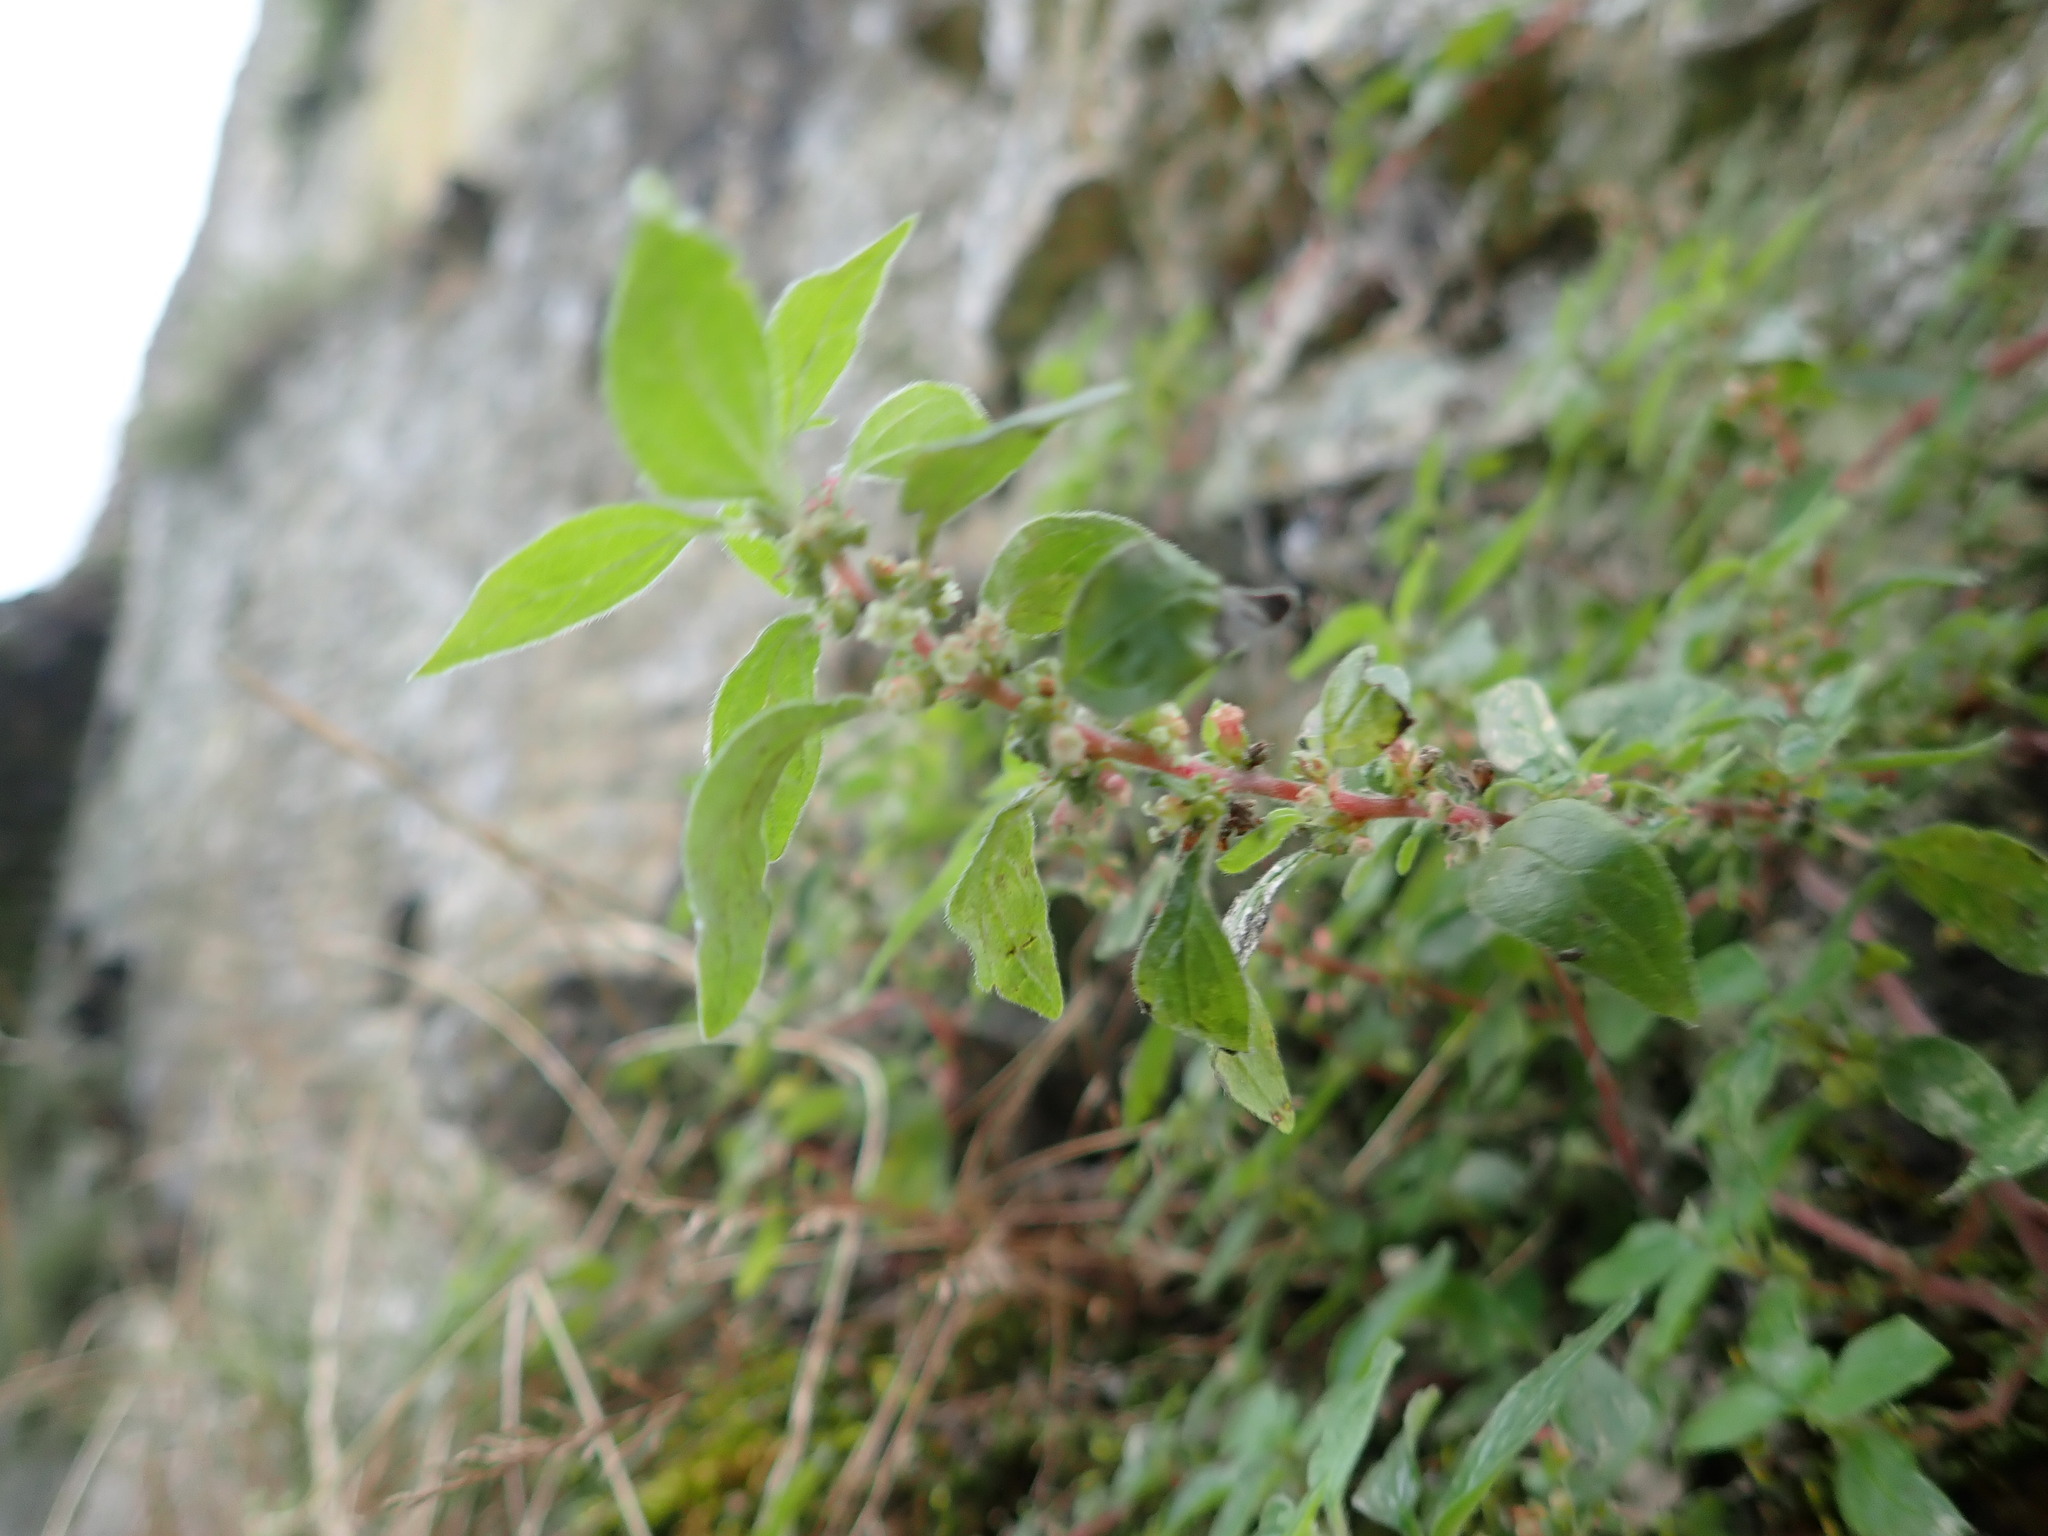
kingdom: Plantae
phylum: Tracheophyta
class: Magnoliopsida
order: Rosales
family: Urticaceae
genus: Parietaria
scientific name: Parietaria judaica
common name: Pellitory-of-the-wall
